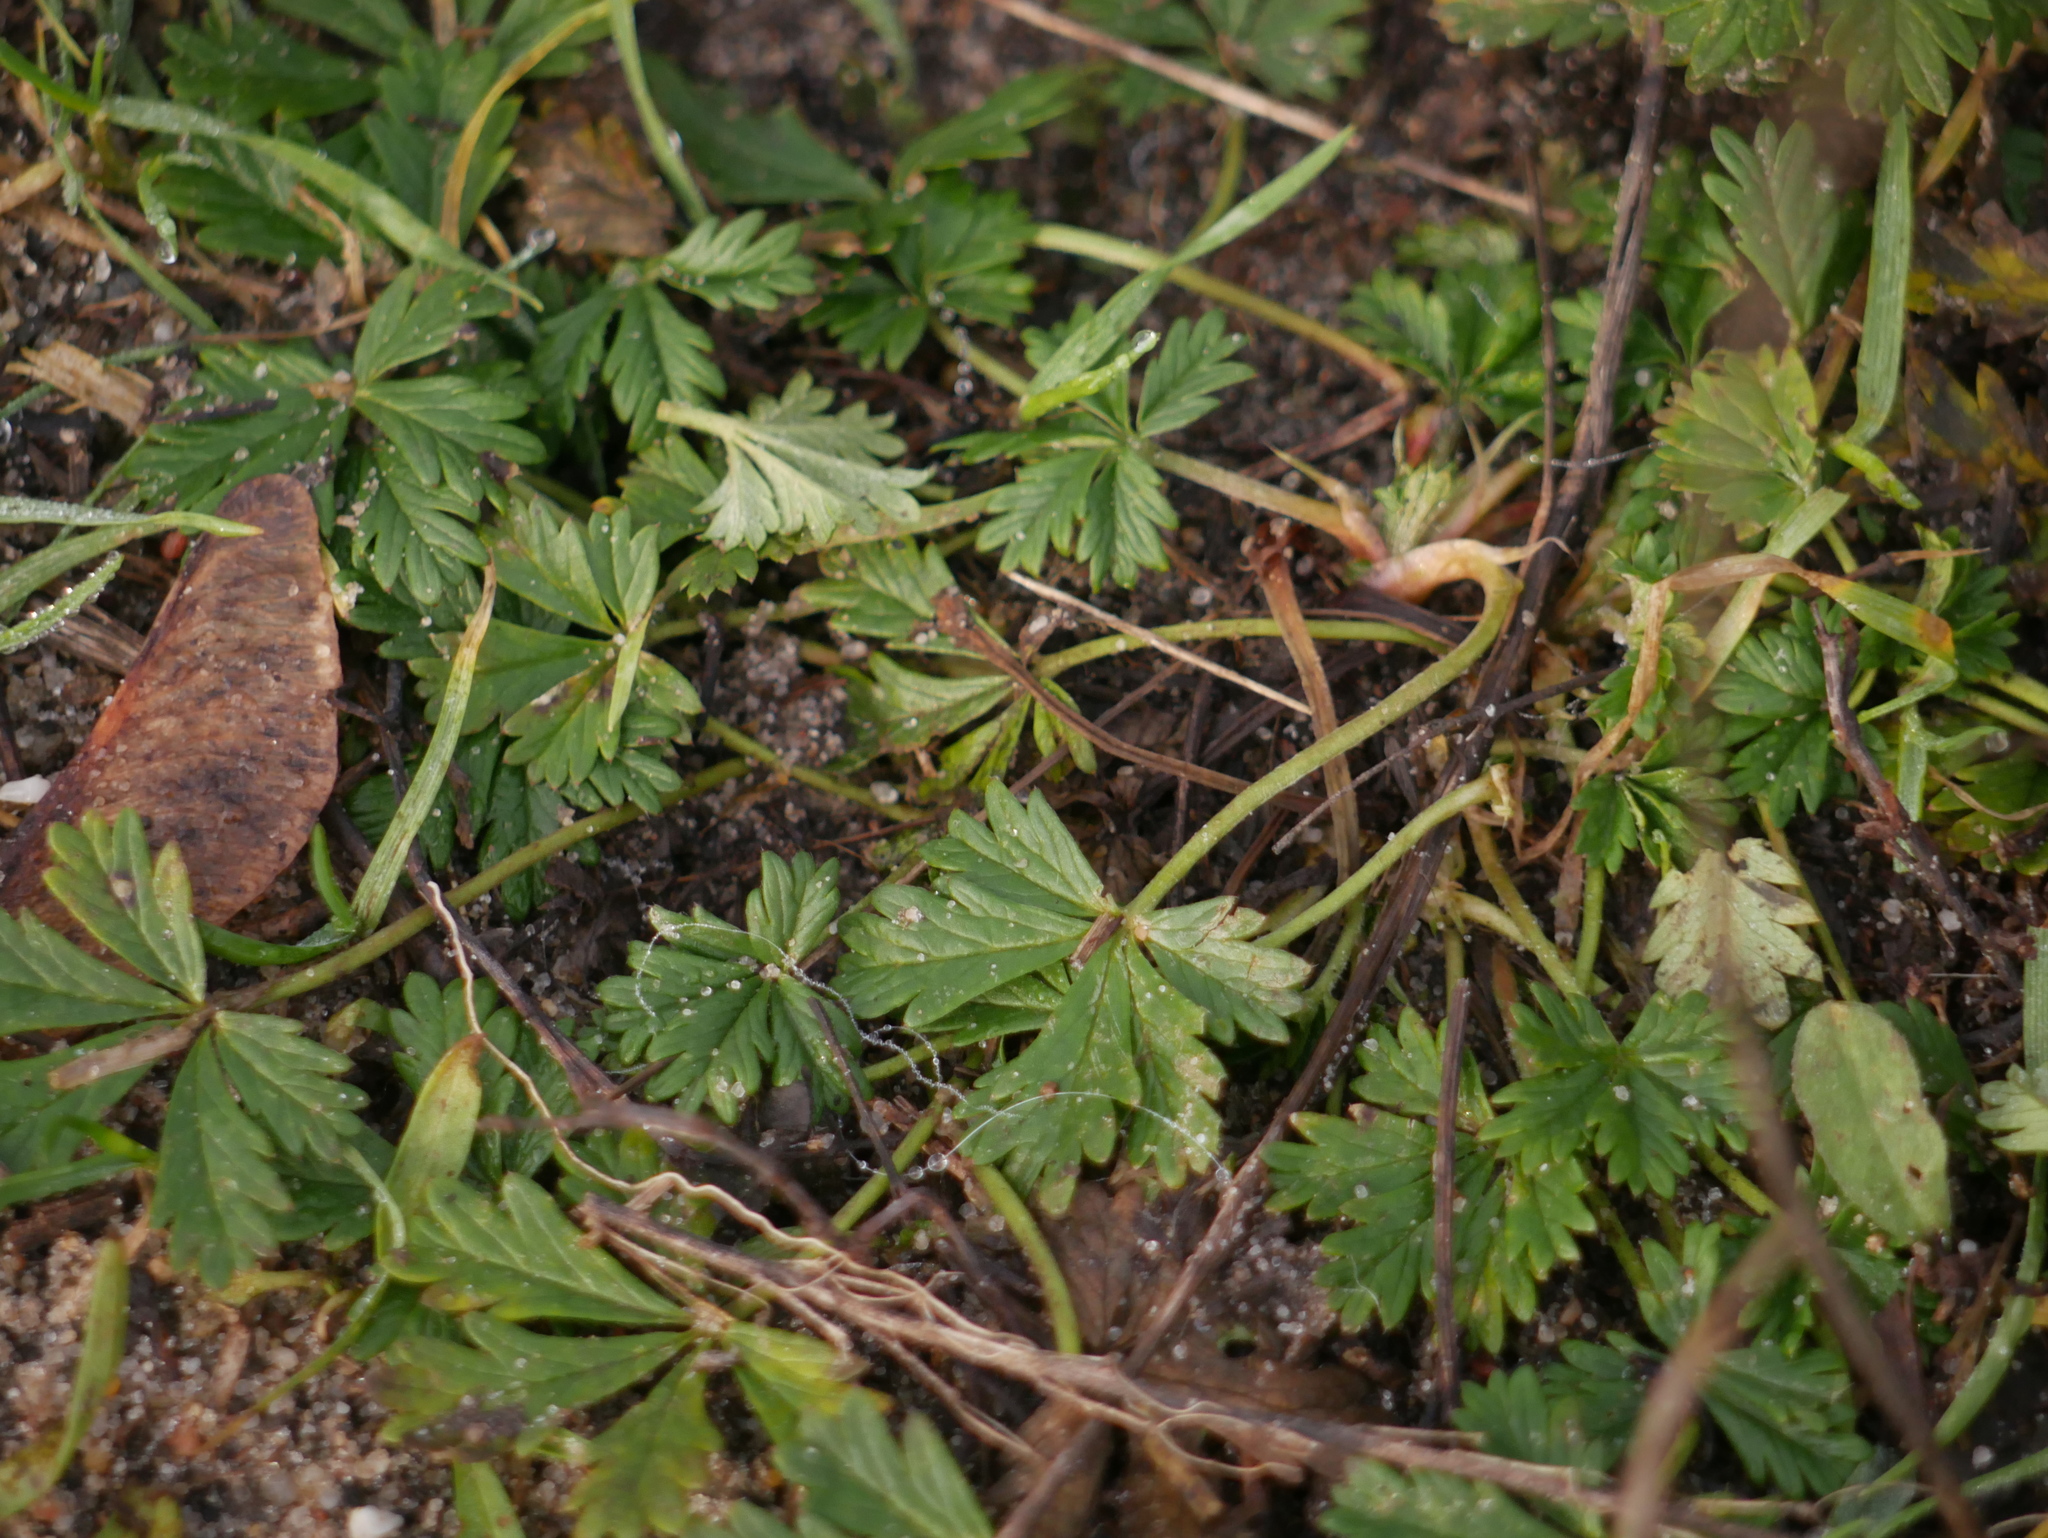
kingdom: Plantae
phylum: Tracheophyta
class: Magnoliopsida
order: Rosales
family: Rosaceae
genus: Potentilla
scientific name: Potentilla argentea
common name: Hoary cinquefoil
